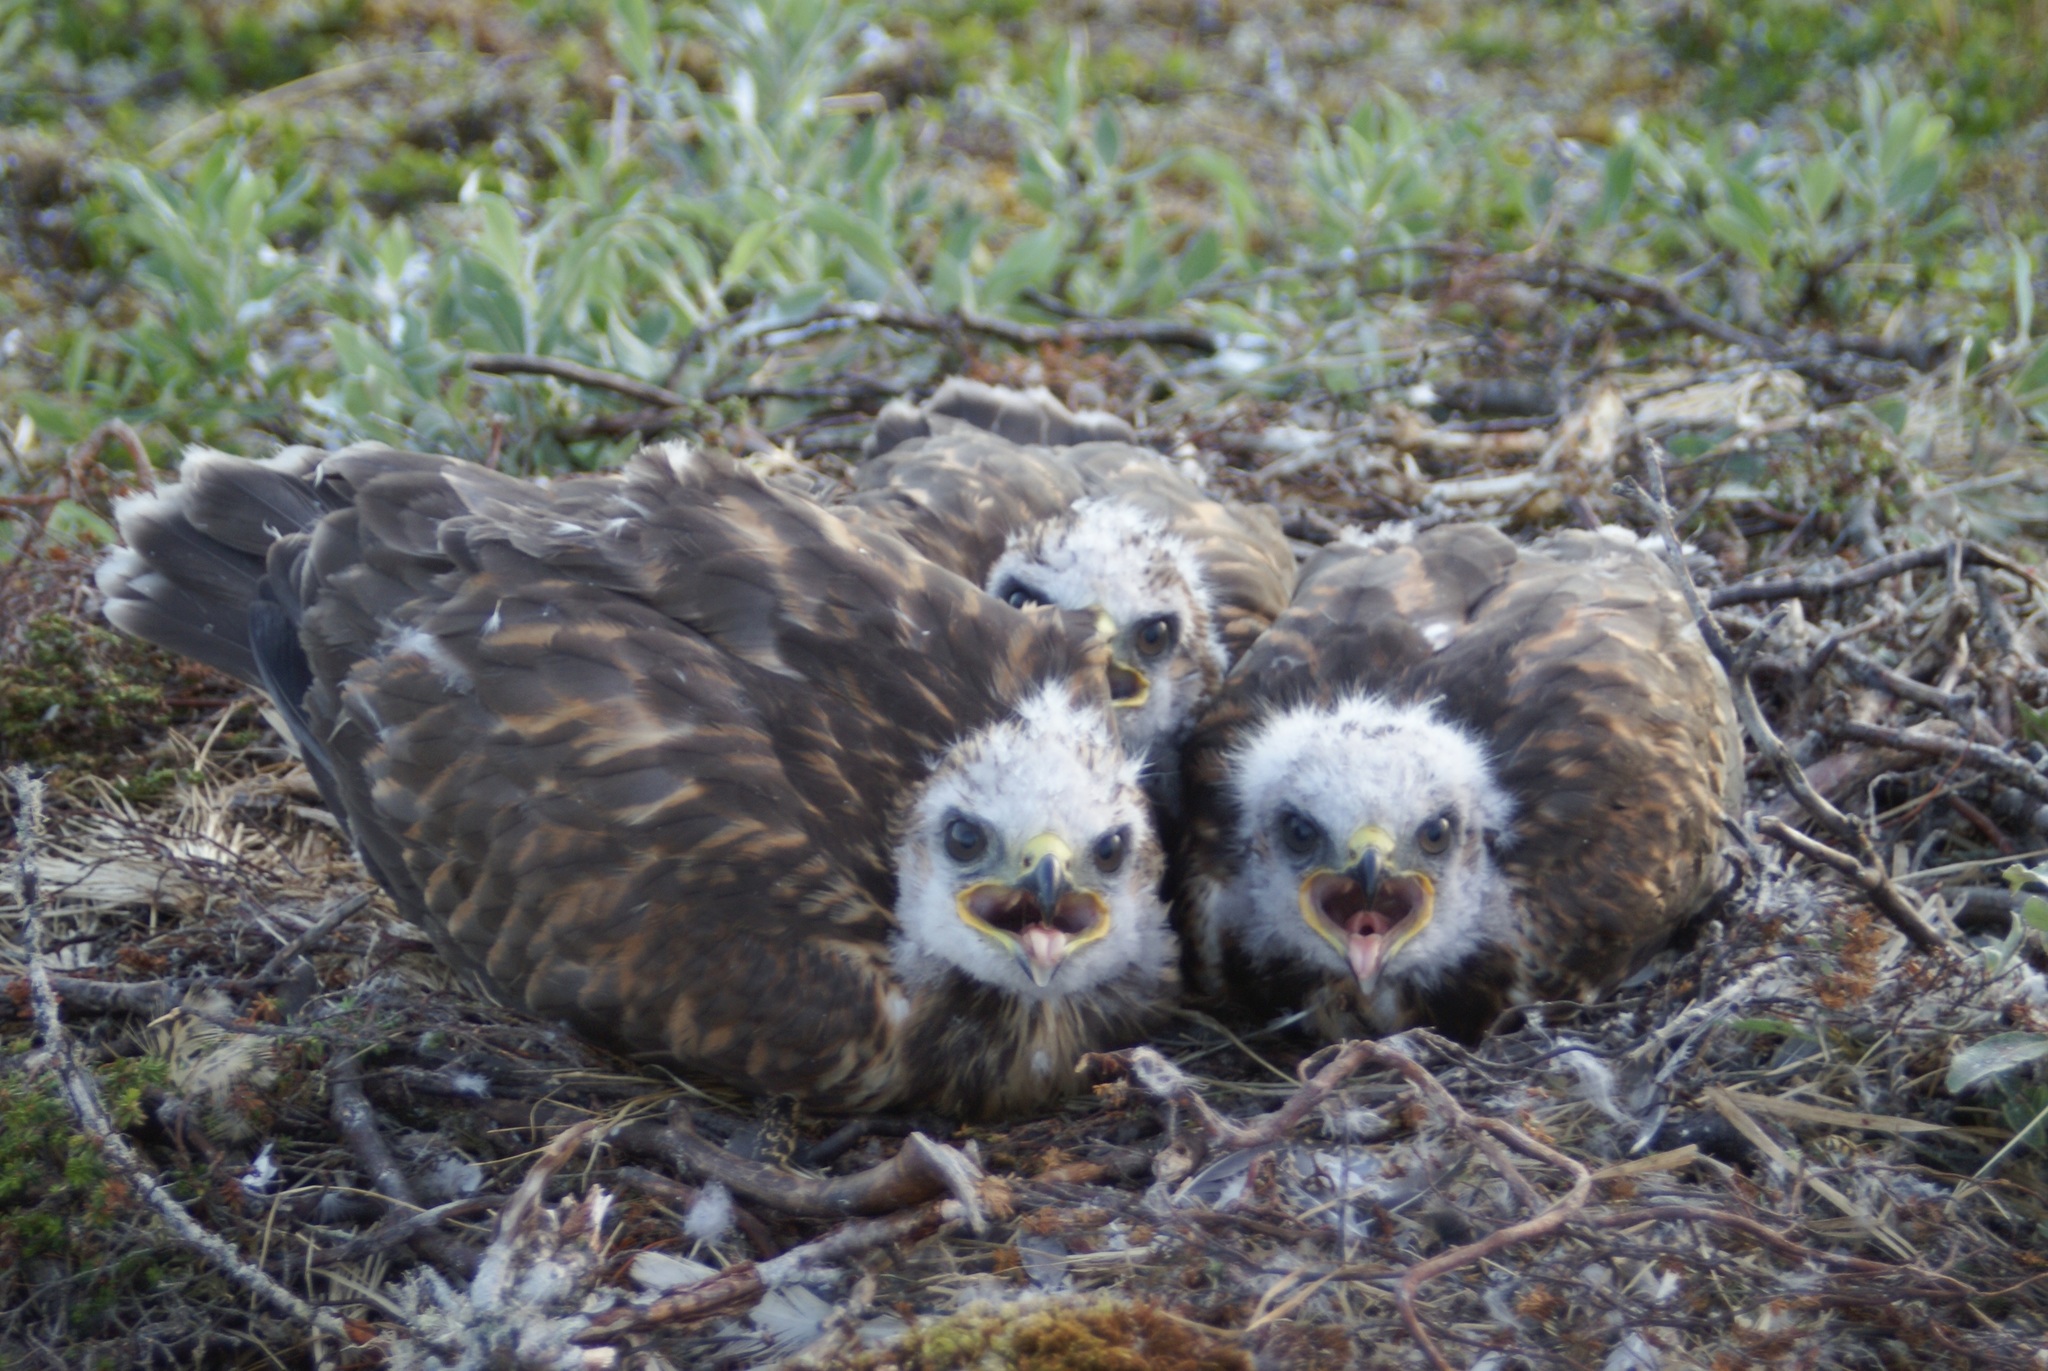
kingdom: Animalia
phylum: Chordata
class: Aves
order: Accipitriformes
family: Accipitridae
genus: Buteo
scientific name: Buteo lagopus
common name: Rough-legged buzzard
